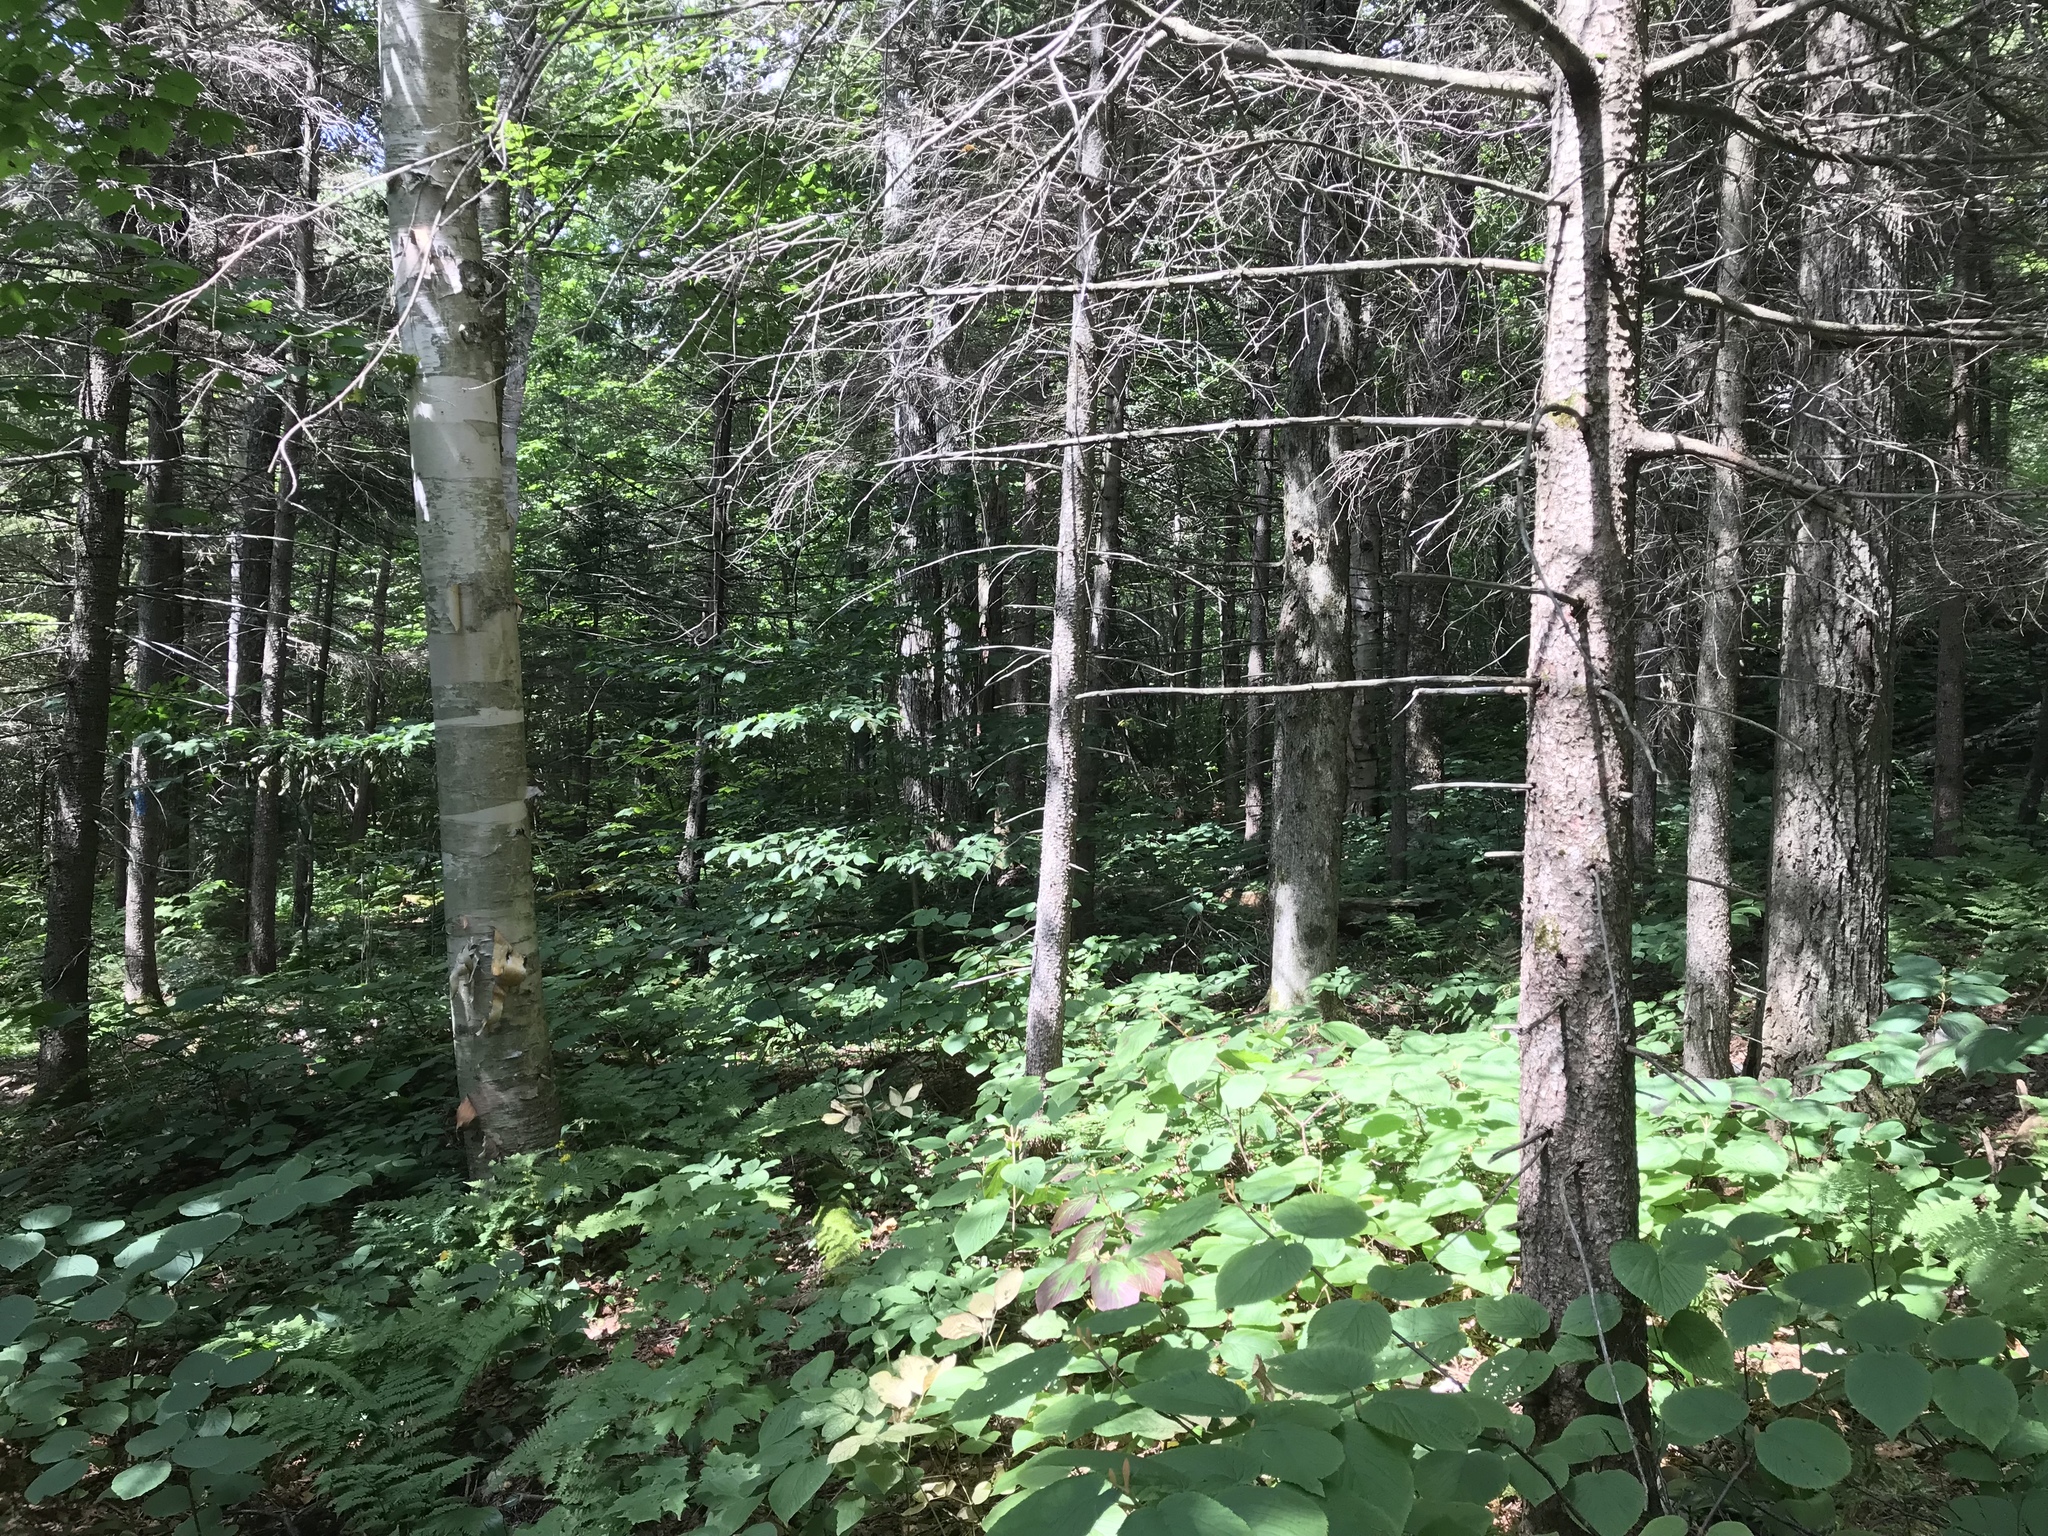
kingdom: Plantae
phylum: Tracheophyta
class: Magnoliopsida
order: Fagales
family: Betulaceae
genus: Betula
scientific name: Betula cordifolia
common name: Mountain white birch
